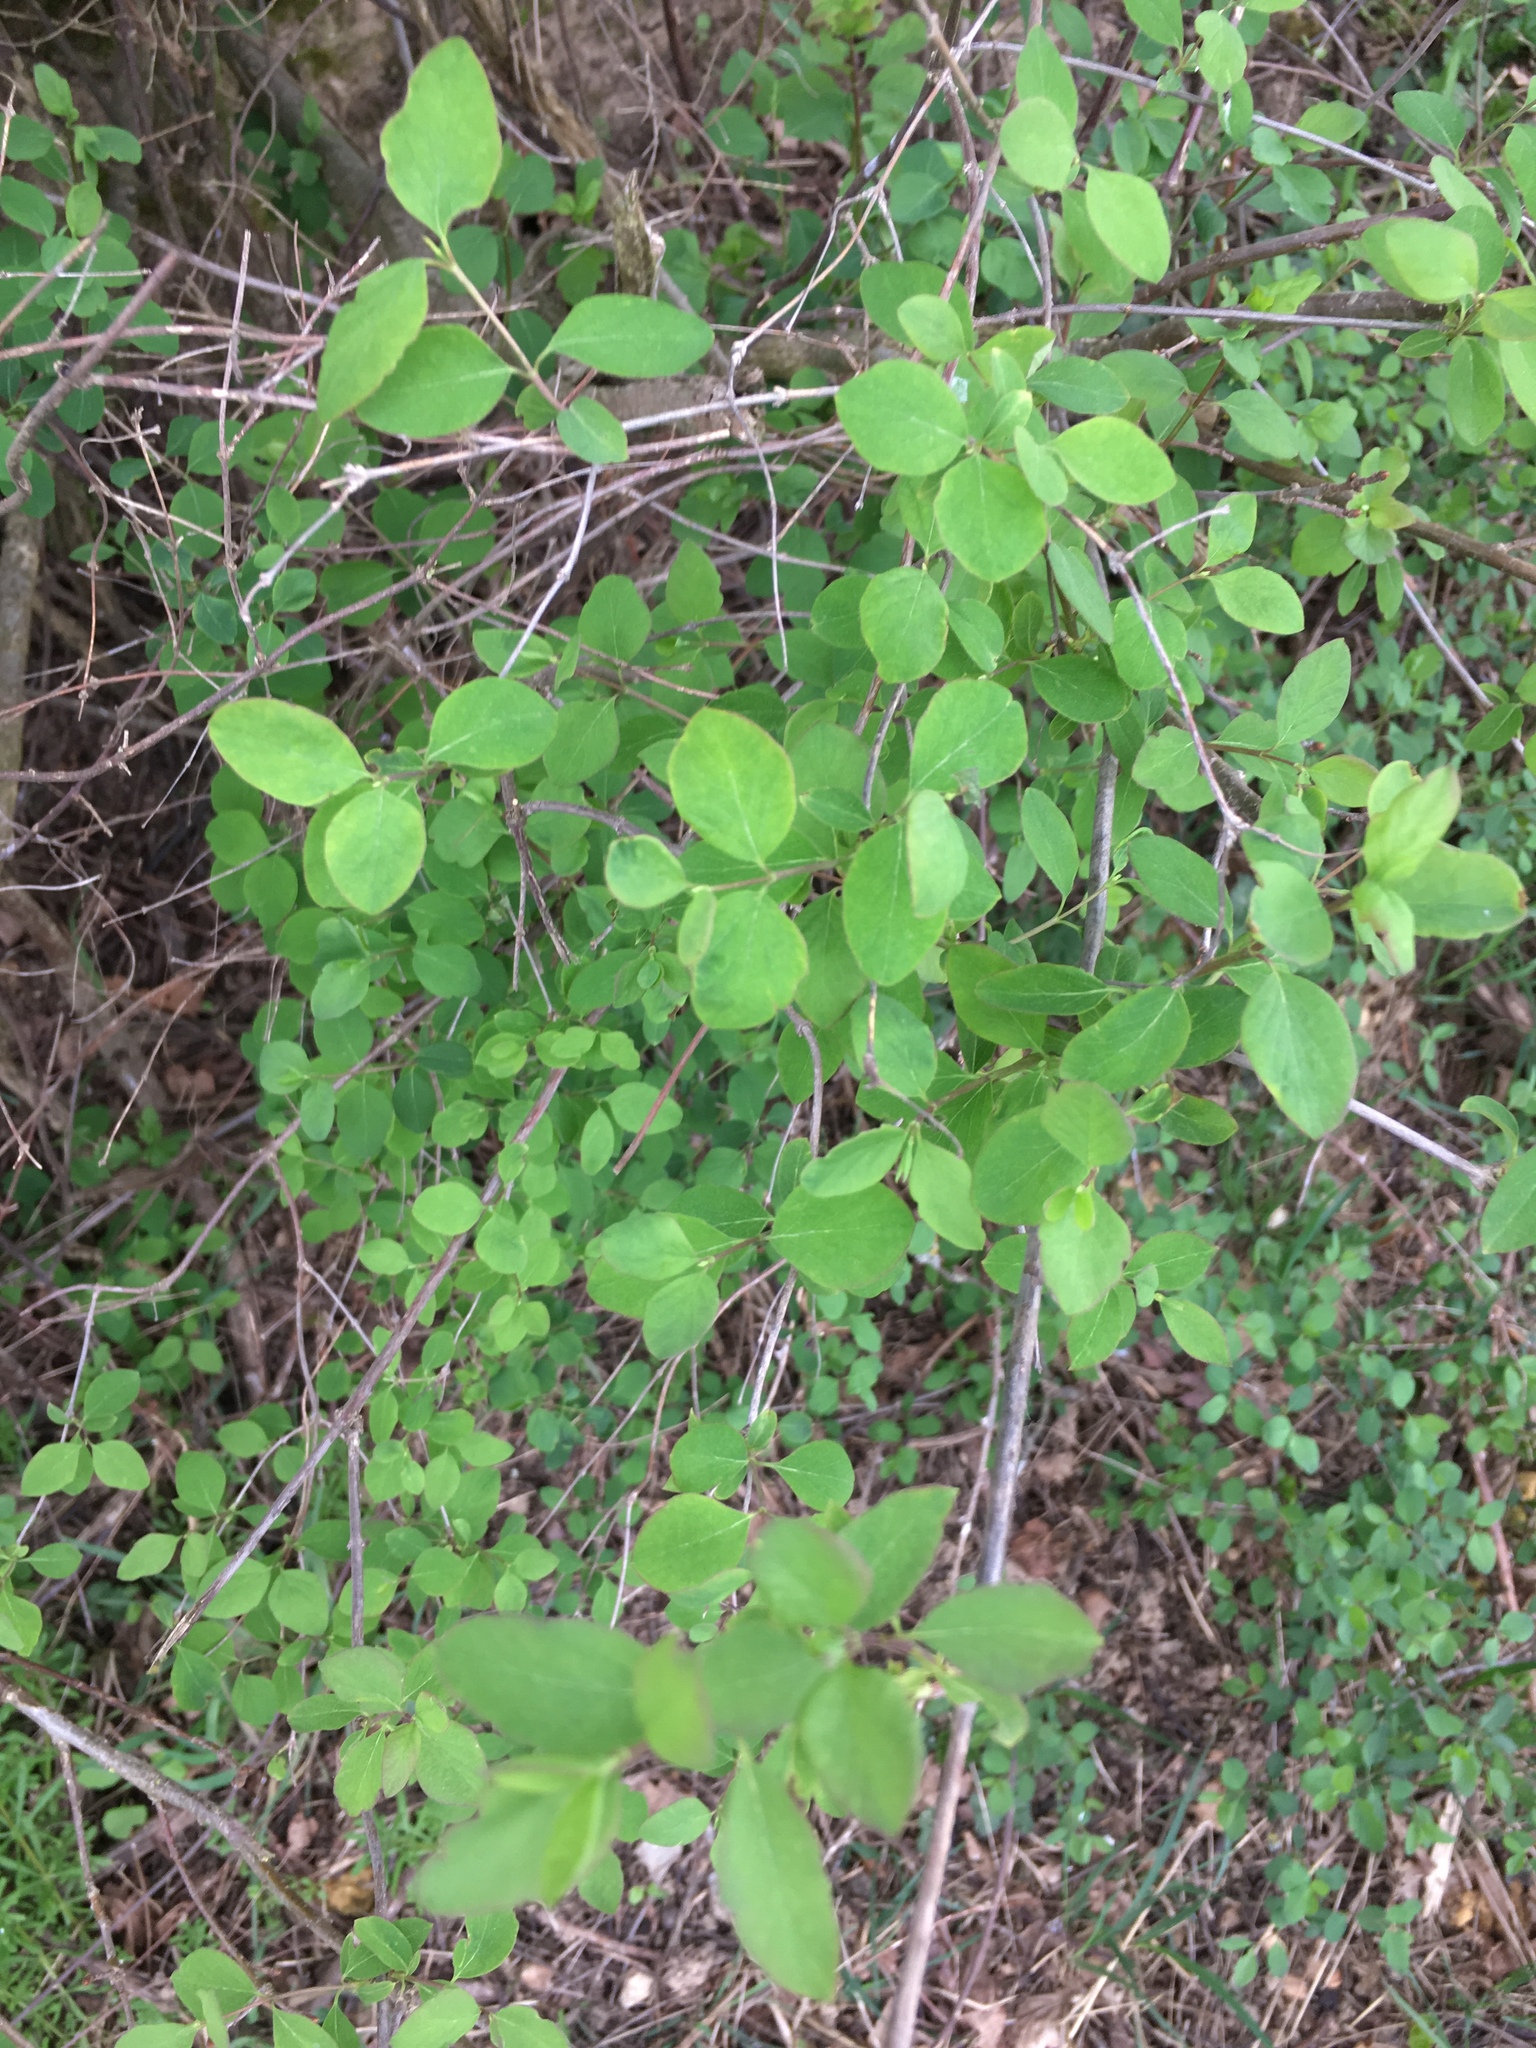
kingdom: Plantae
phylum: Tracheophyta
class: Magnoliopsida
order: Dipsacales
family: Caprifoliaceae
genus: Symphoricarpos
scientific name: Symphoricarpos albus
